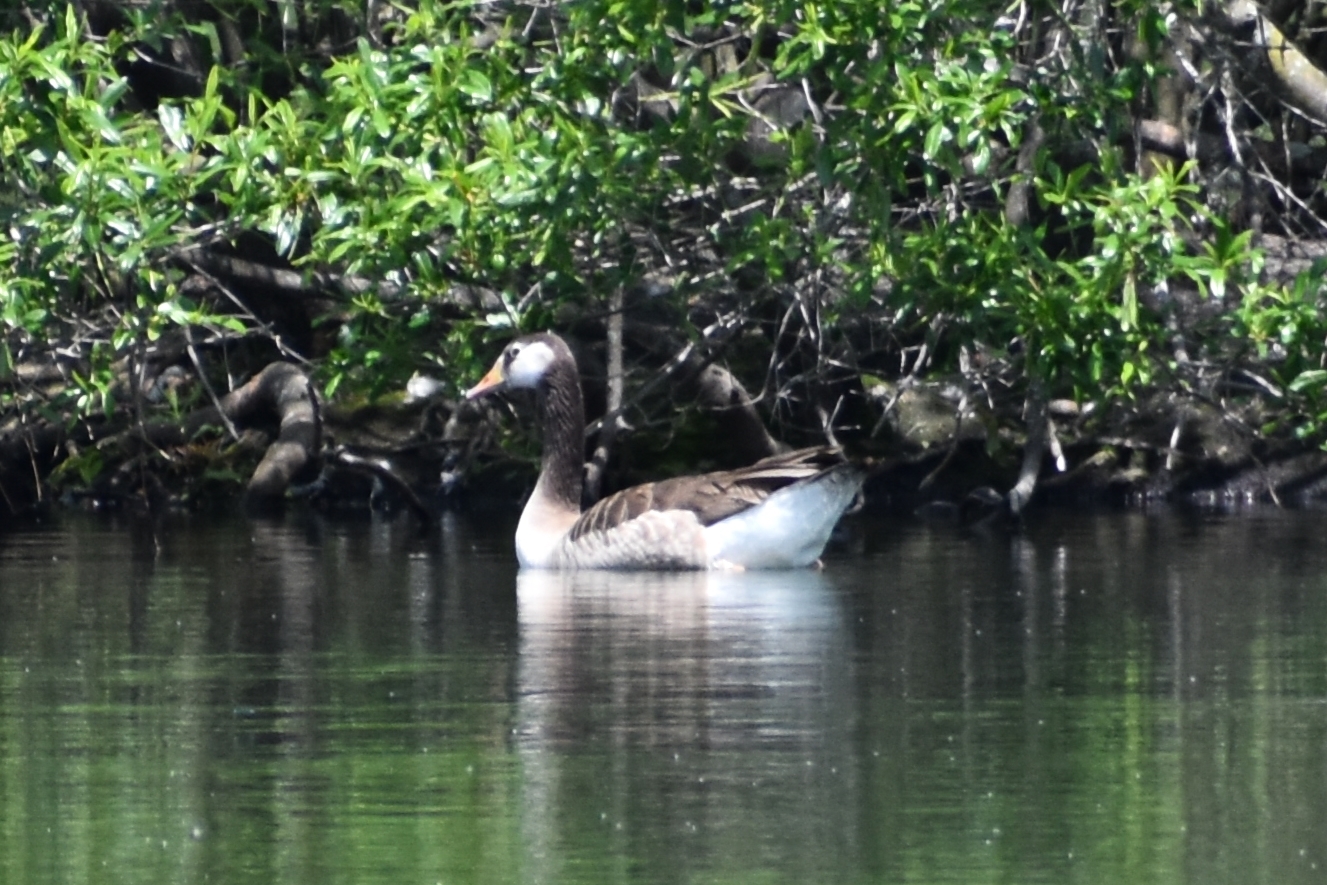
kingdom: Animalia
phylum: Chordata
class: Aves
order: Anseriformes
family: Anatidae
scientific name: Anatidae
